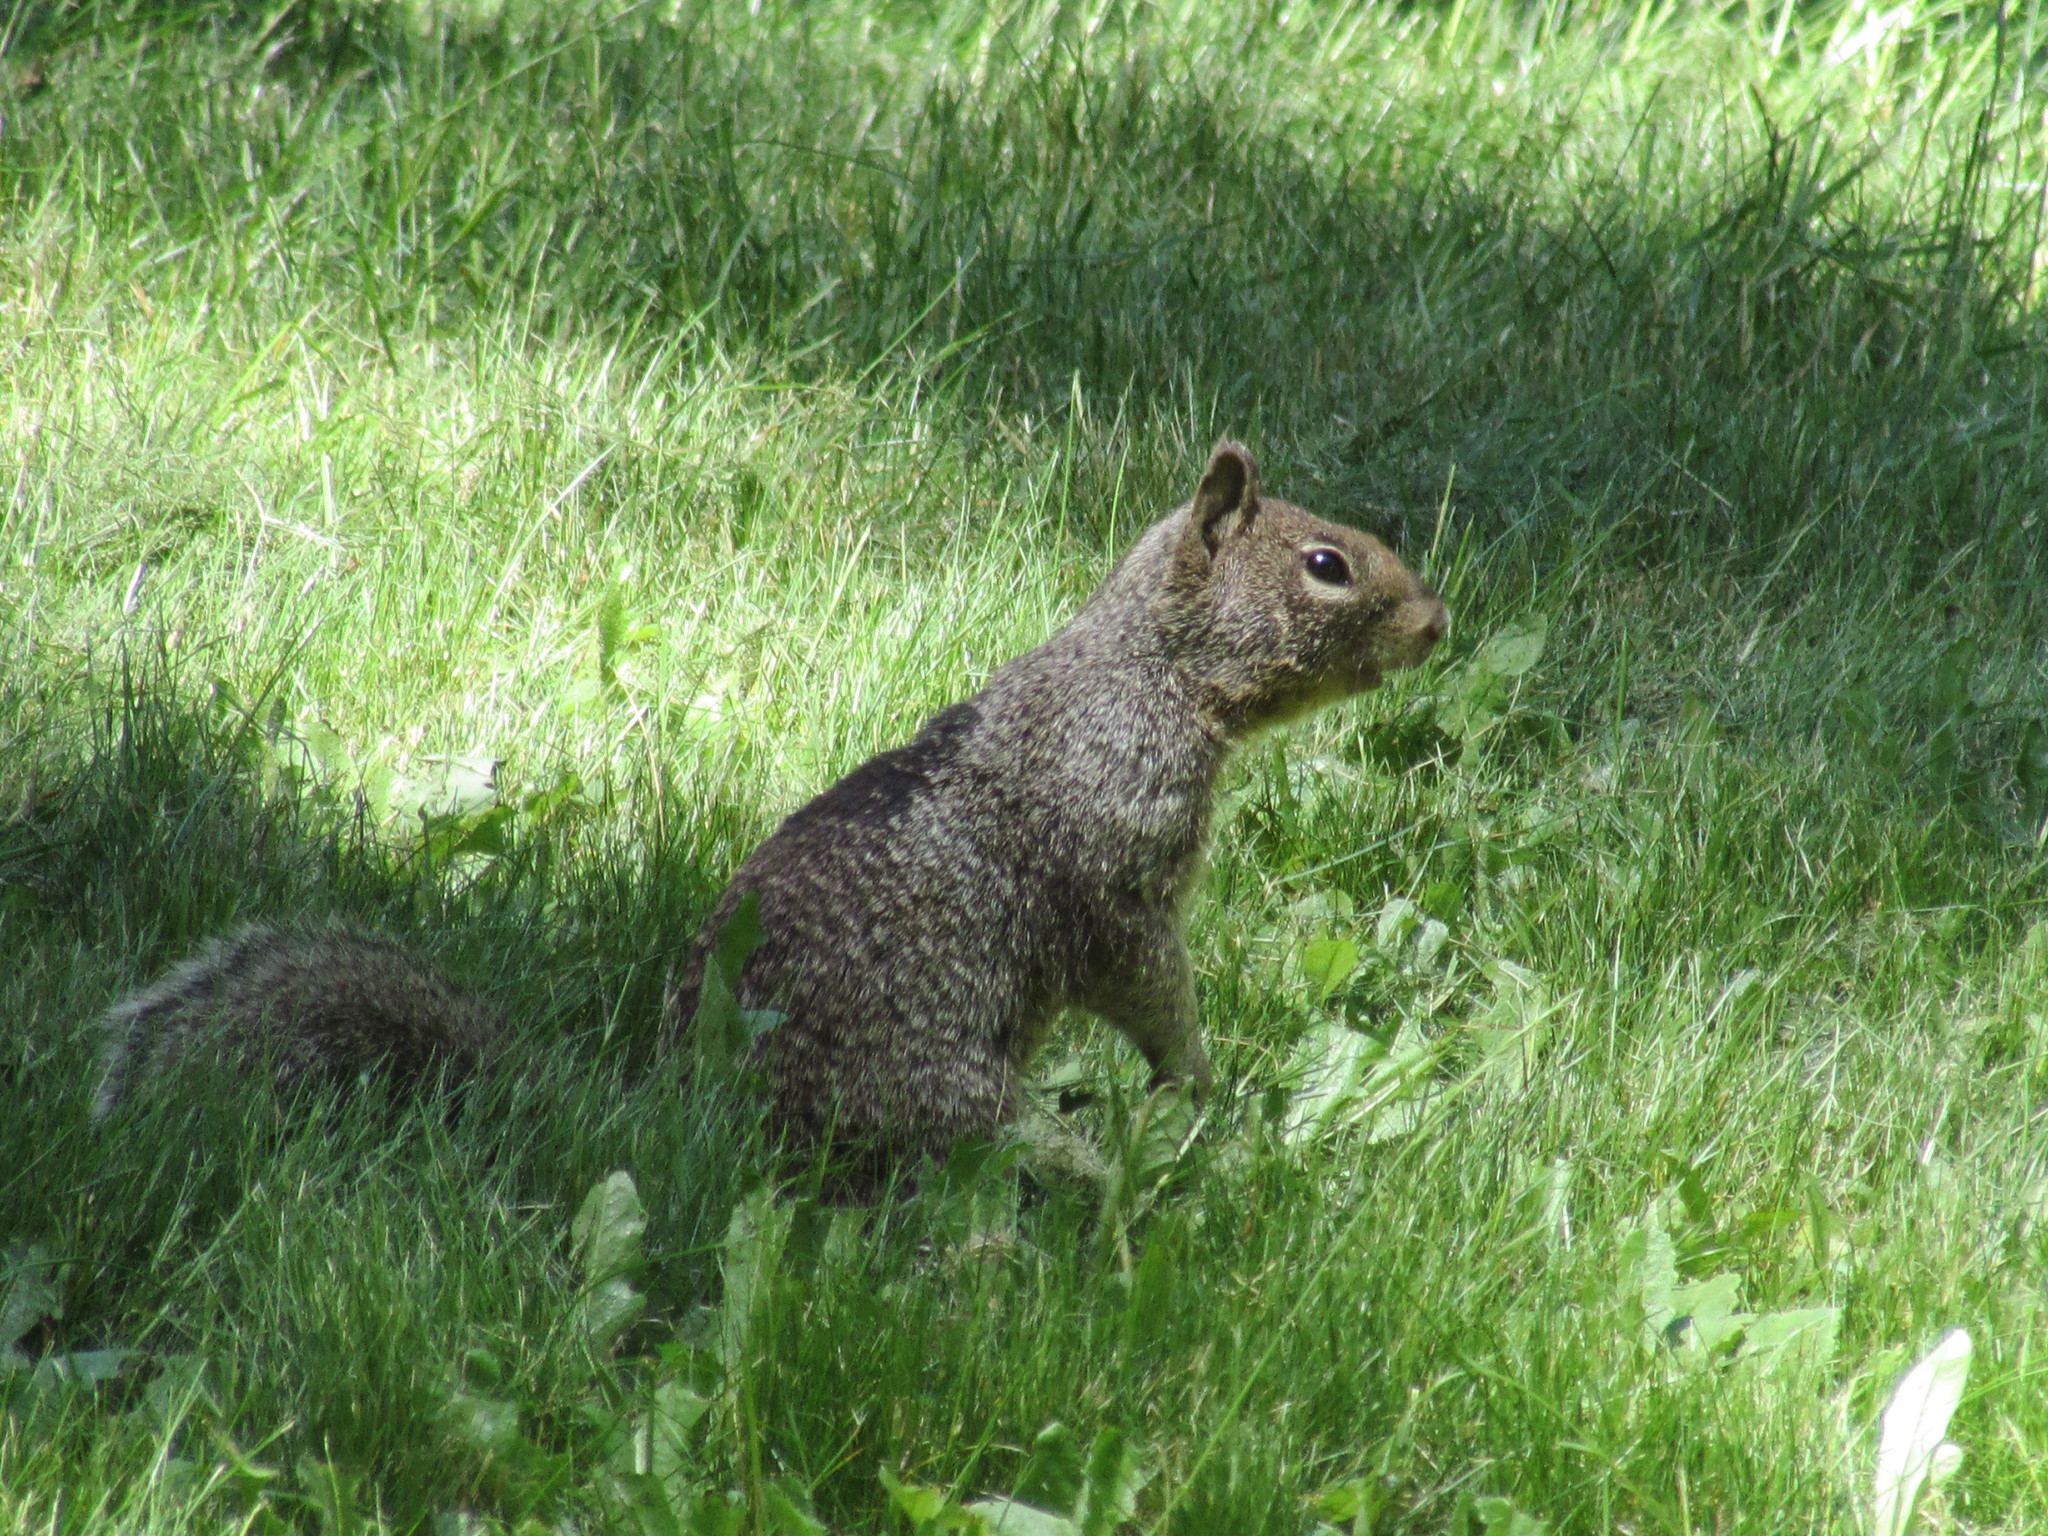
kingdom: Animalia
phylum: Chordata
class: Mammalia
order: Rodentia
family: Sciuridae
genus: Otospermophilus
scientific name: Otospermophilus beecheyi
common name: California ground squirrel
